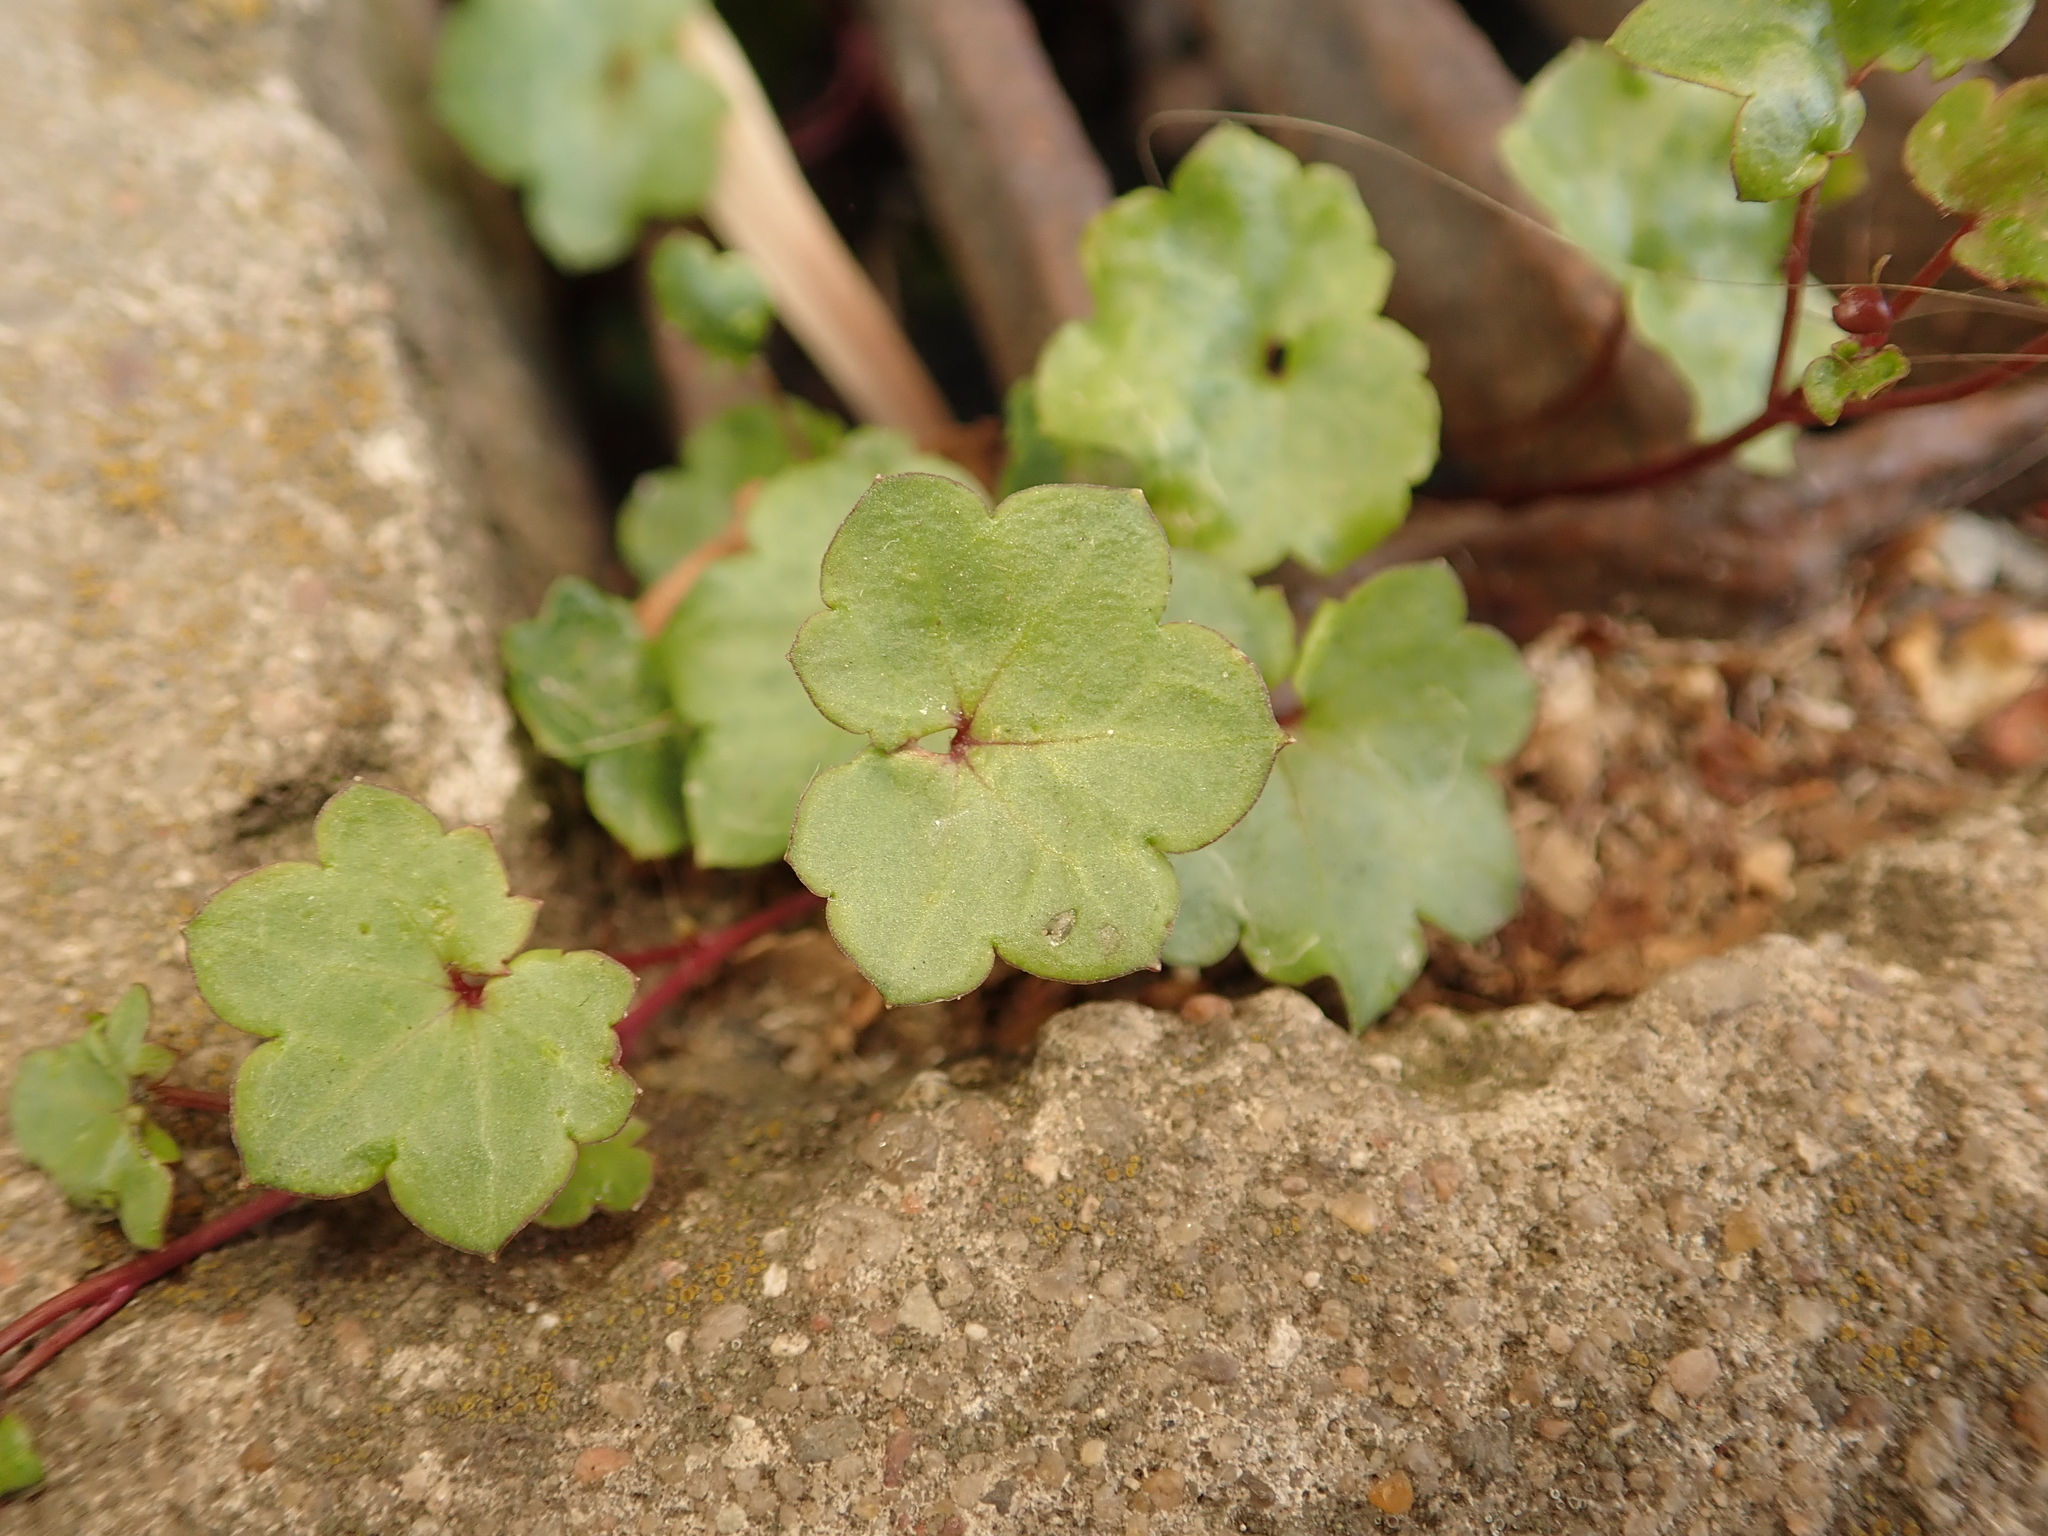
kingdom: Plantae
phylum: Tracheophyta
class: Magnoliopsida
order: Lamiales
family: Plantaginaceae
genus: Cymbalaria
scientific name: Cymbalaria muralis
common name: Ivy-leaved toadflax
